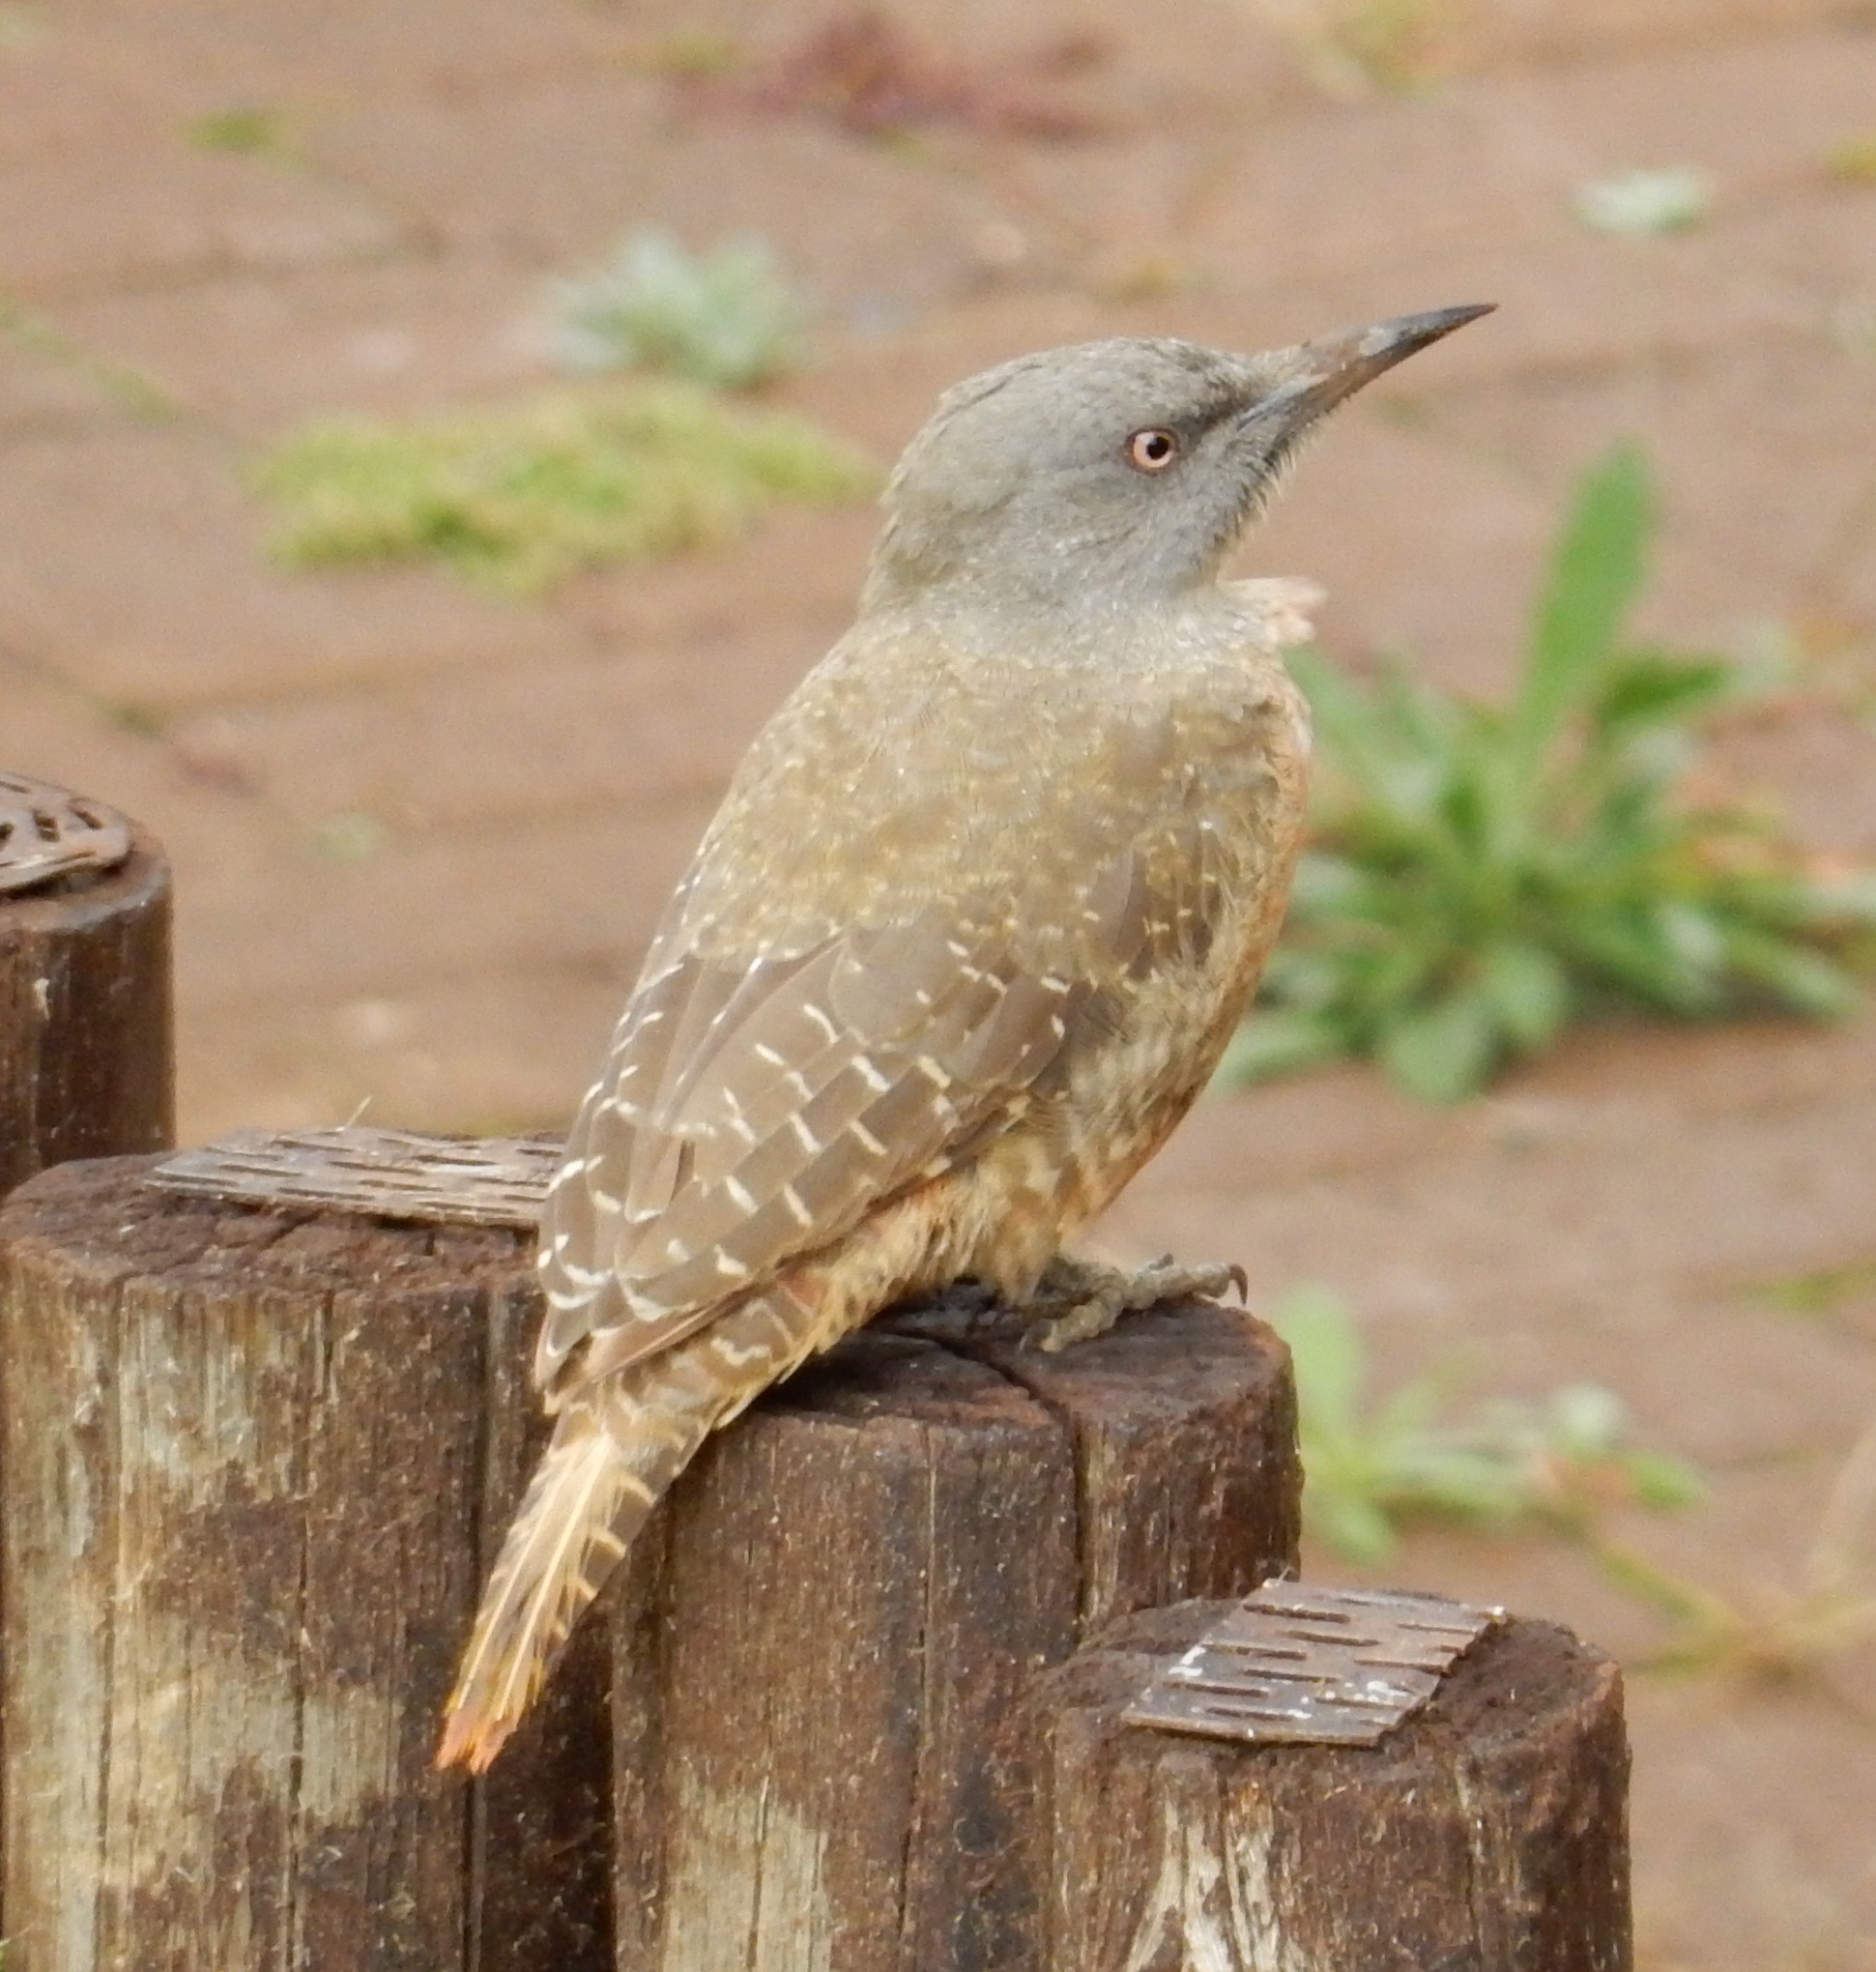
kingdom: Animalia
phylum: Chordata
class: Aves
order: Piciformes
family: Picidae
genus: Geocolaptes
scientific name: Geocolaptes olivaceus
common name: Ground woodpecker
